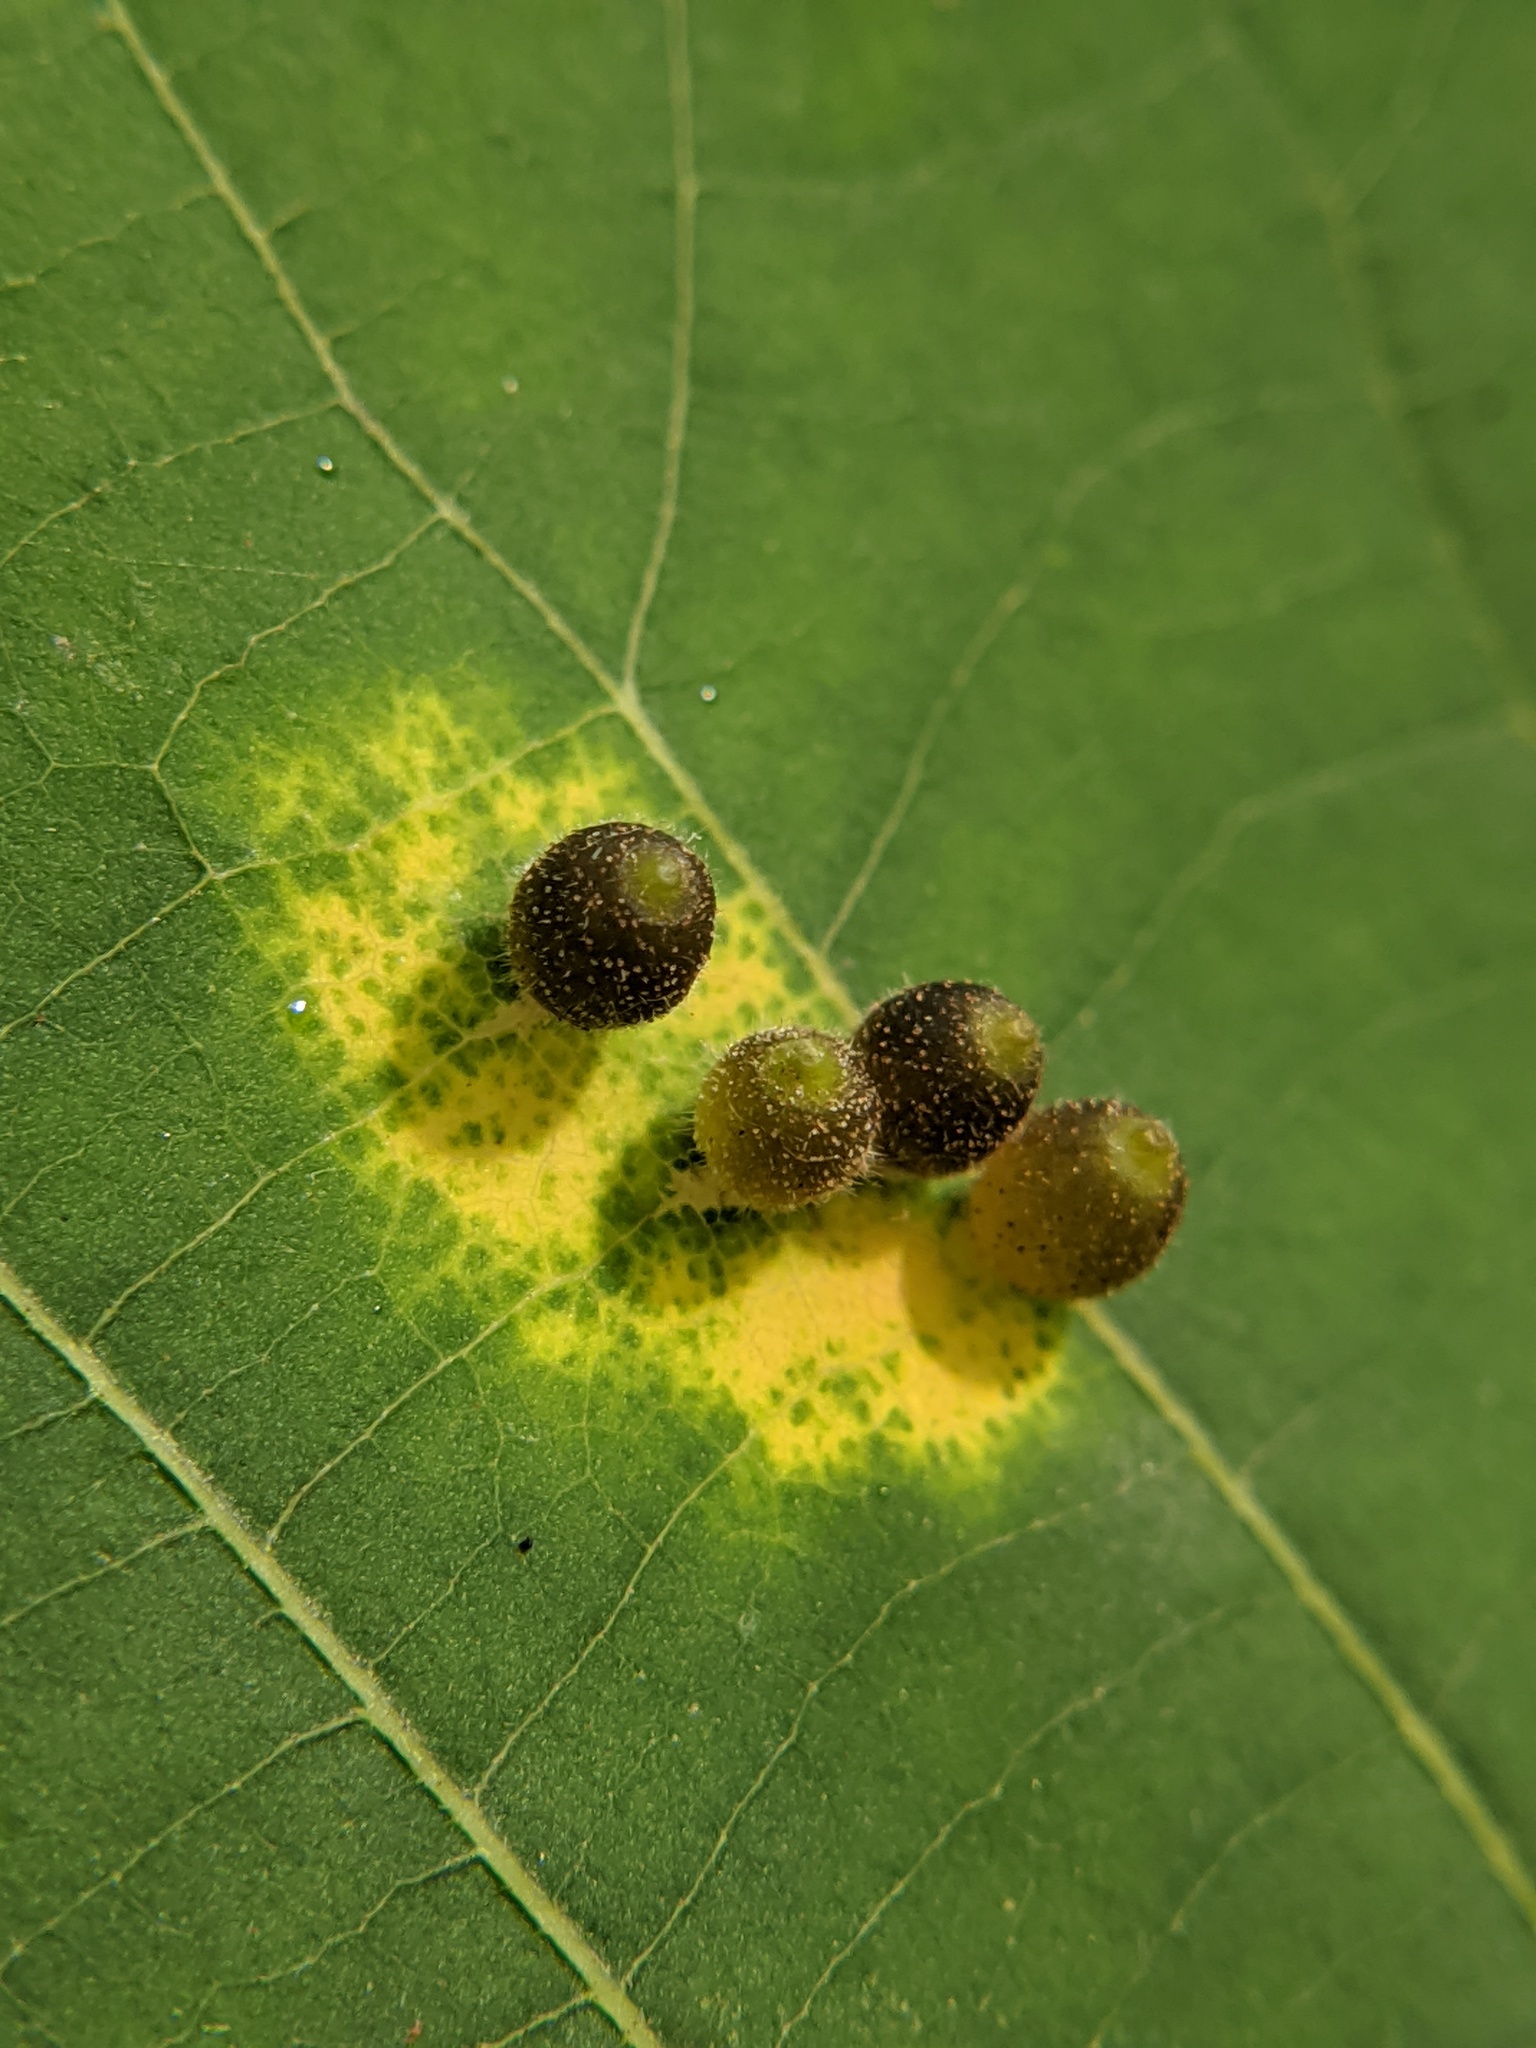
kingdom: Animalia
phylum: Arthropoda
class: Insecta
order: Diptera
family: Cecidomyiidae
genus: Caryomyia
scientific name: Caryomyia viscidolium
